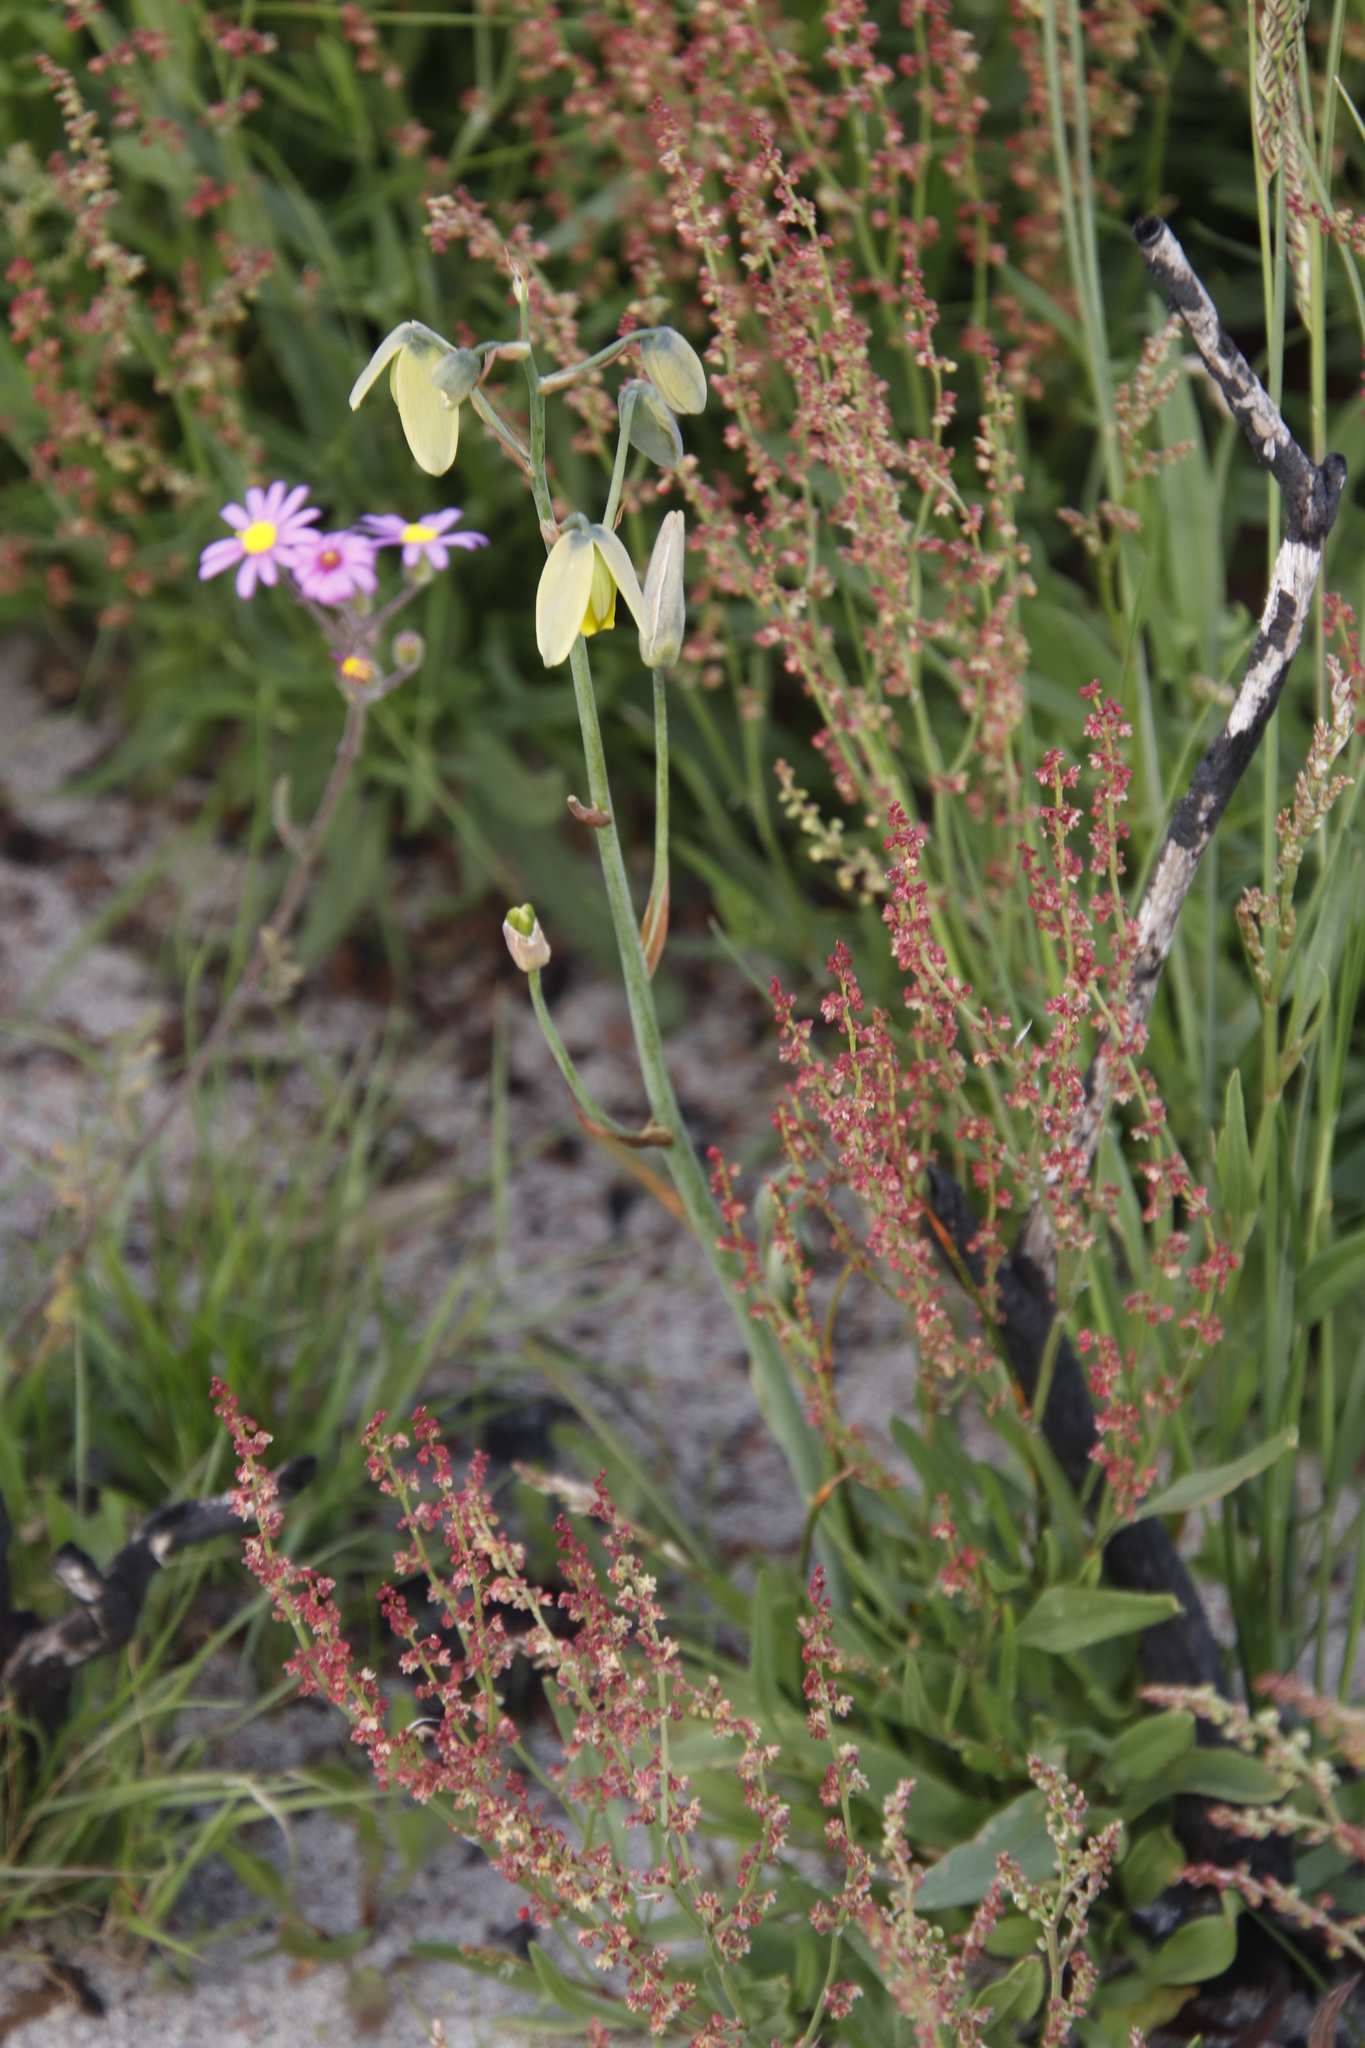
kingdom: Plantae
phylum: Tracheophyta
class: Liliopsida
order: Asparagales
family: Asparagaceae
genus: Albuca
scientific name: Albuca cooperi
